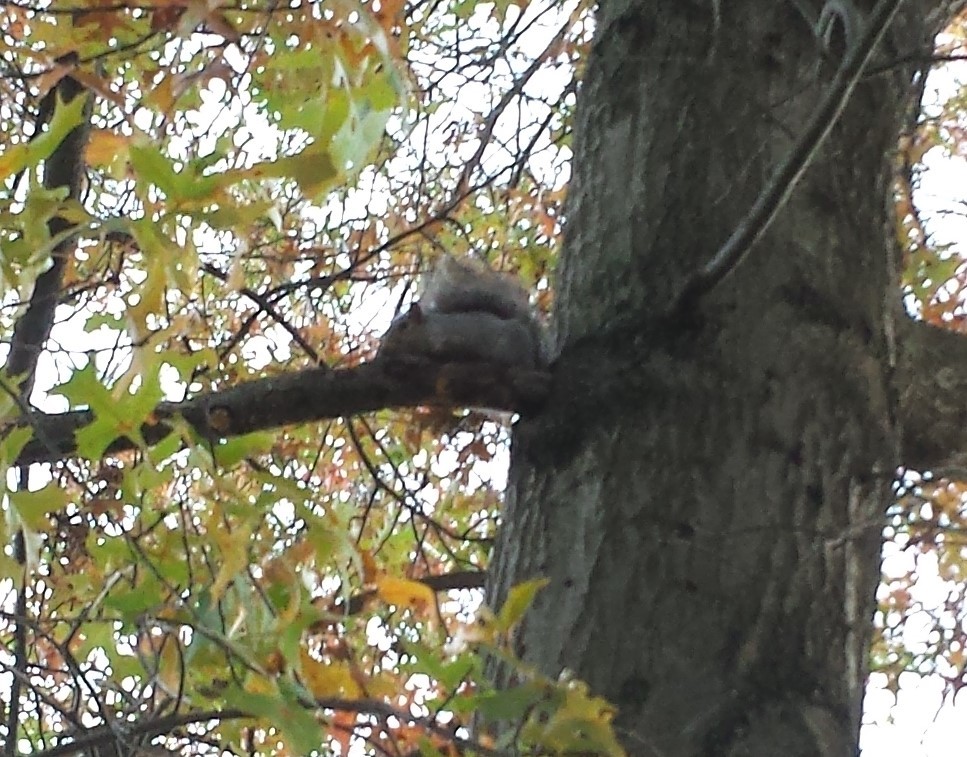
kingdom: Animalia
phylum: Chordata
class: Mammalia
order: Rodentia
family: Sciuridae
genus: Sciurus
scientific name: Sciurus carolinensis
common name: Eastern gray squirrel
